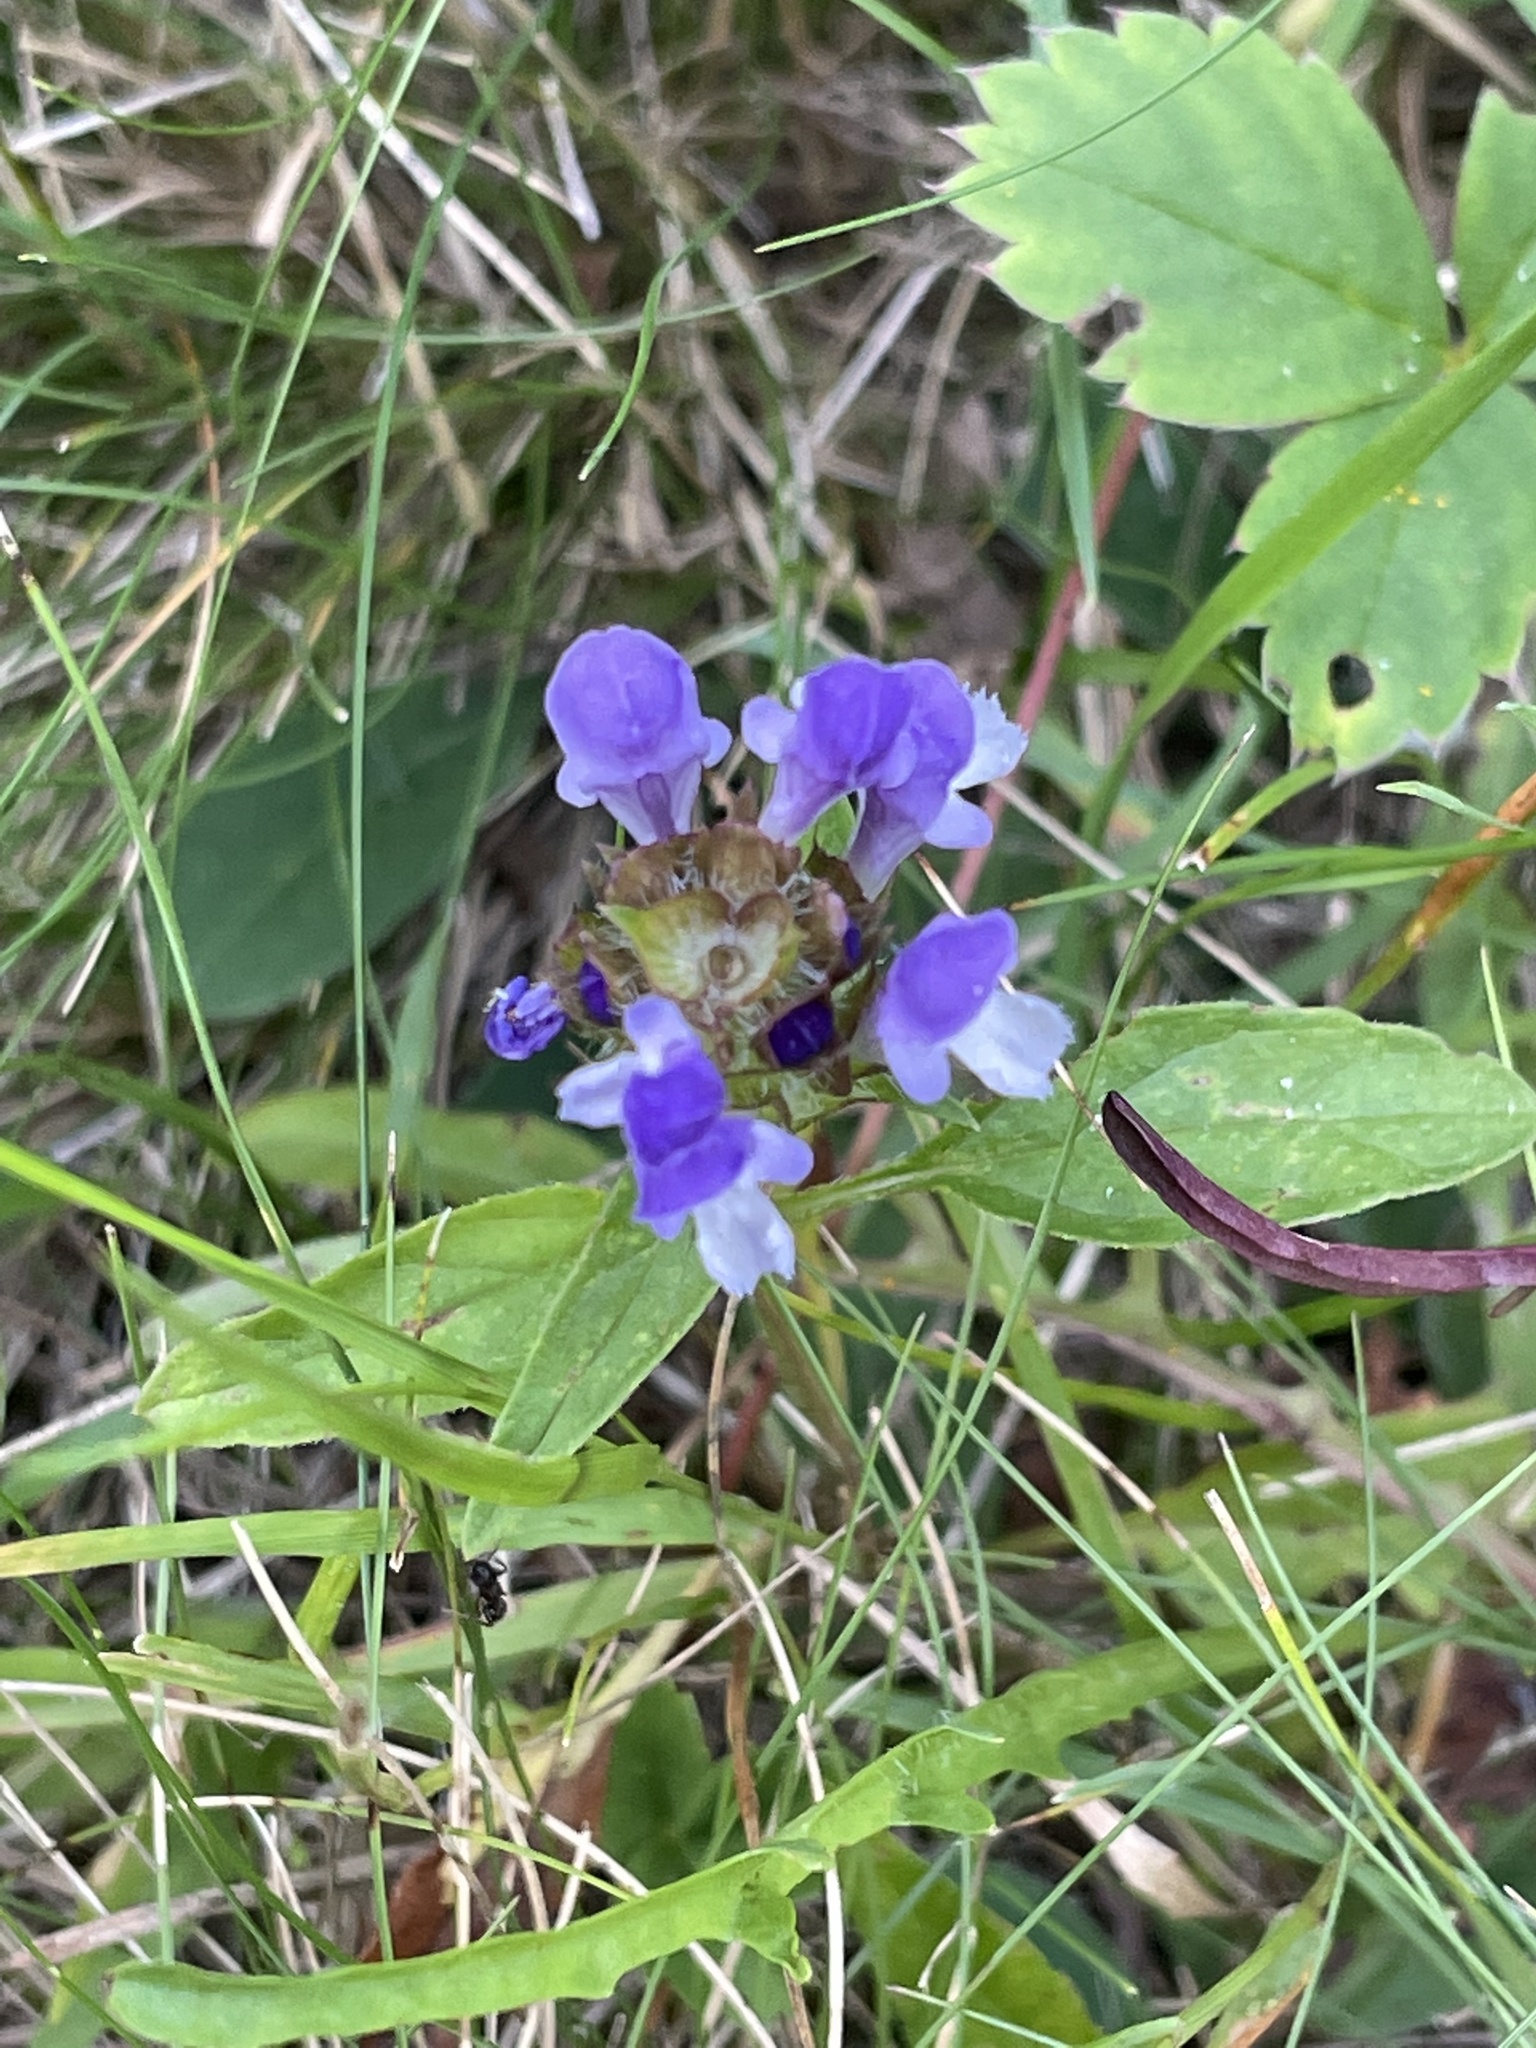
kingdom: Plantae
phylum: Tracheophyta
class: Magnoliopsida
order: Lamiales
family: Lamiaceae
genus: Prunella
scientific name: Prunella vulgaris
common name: Heal-all
